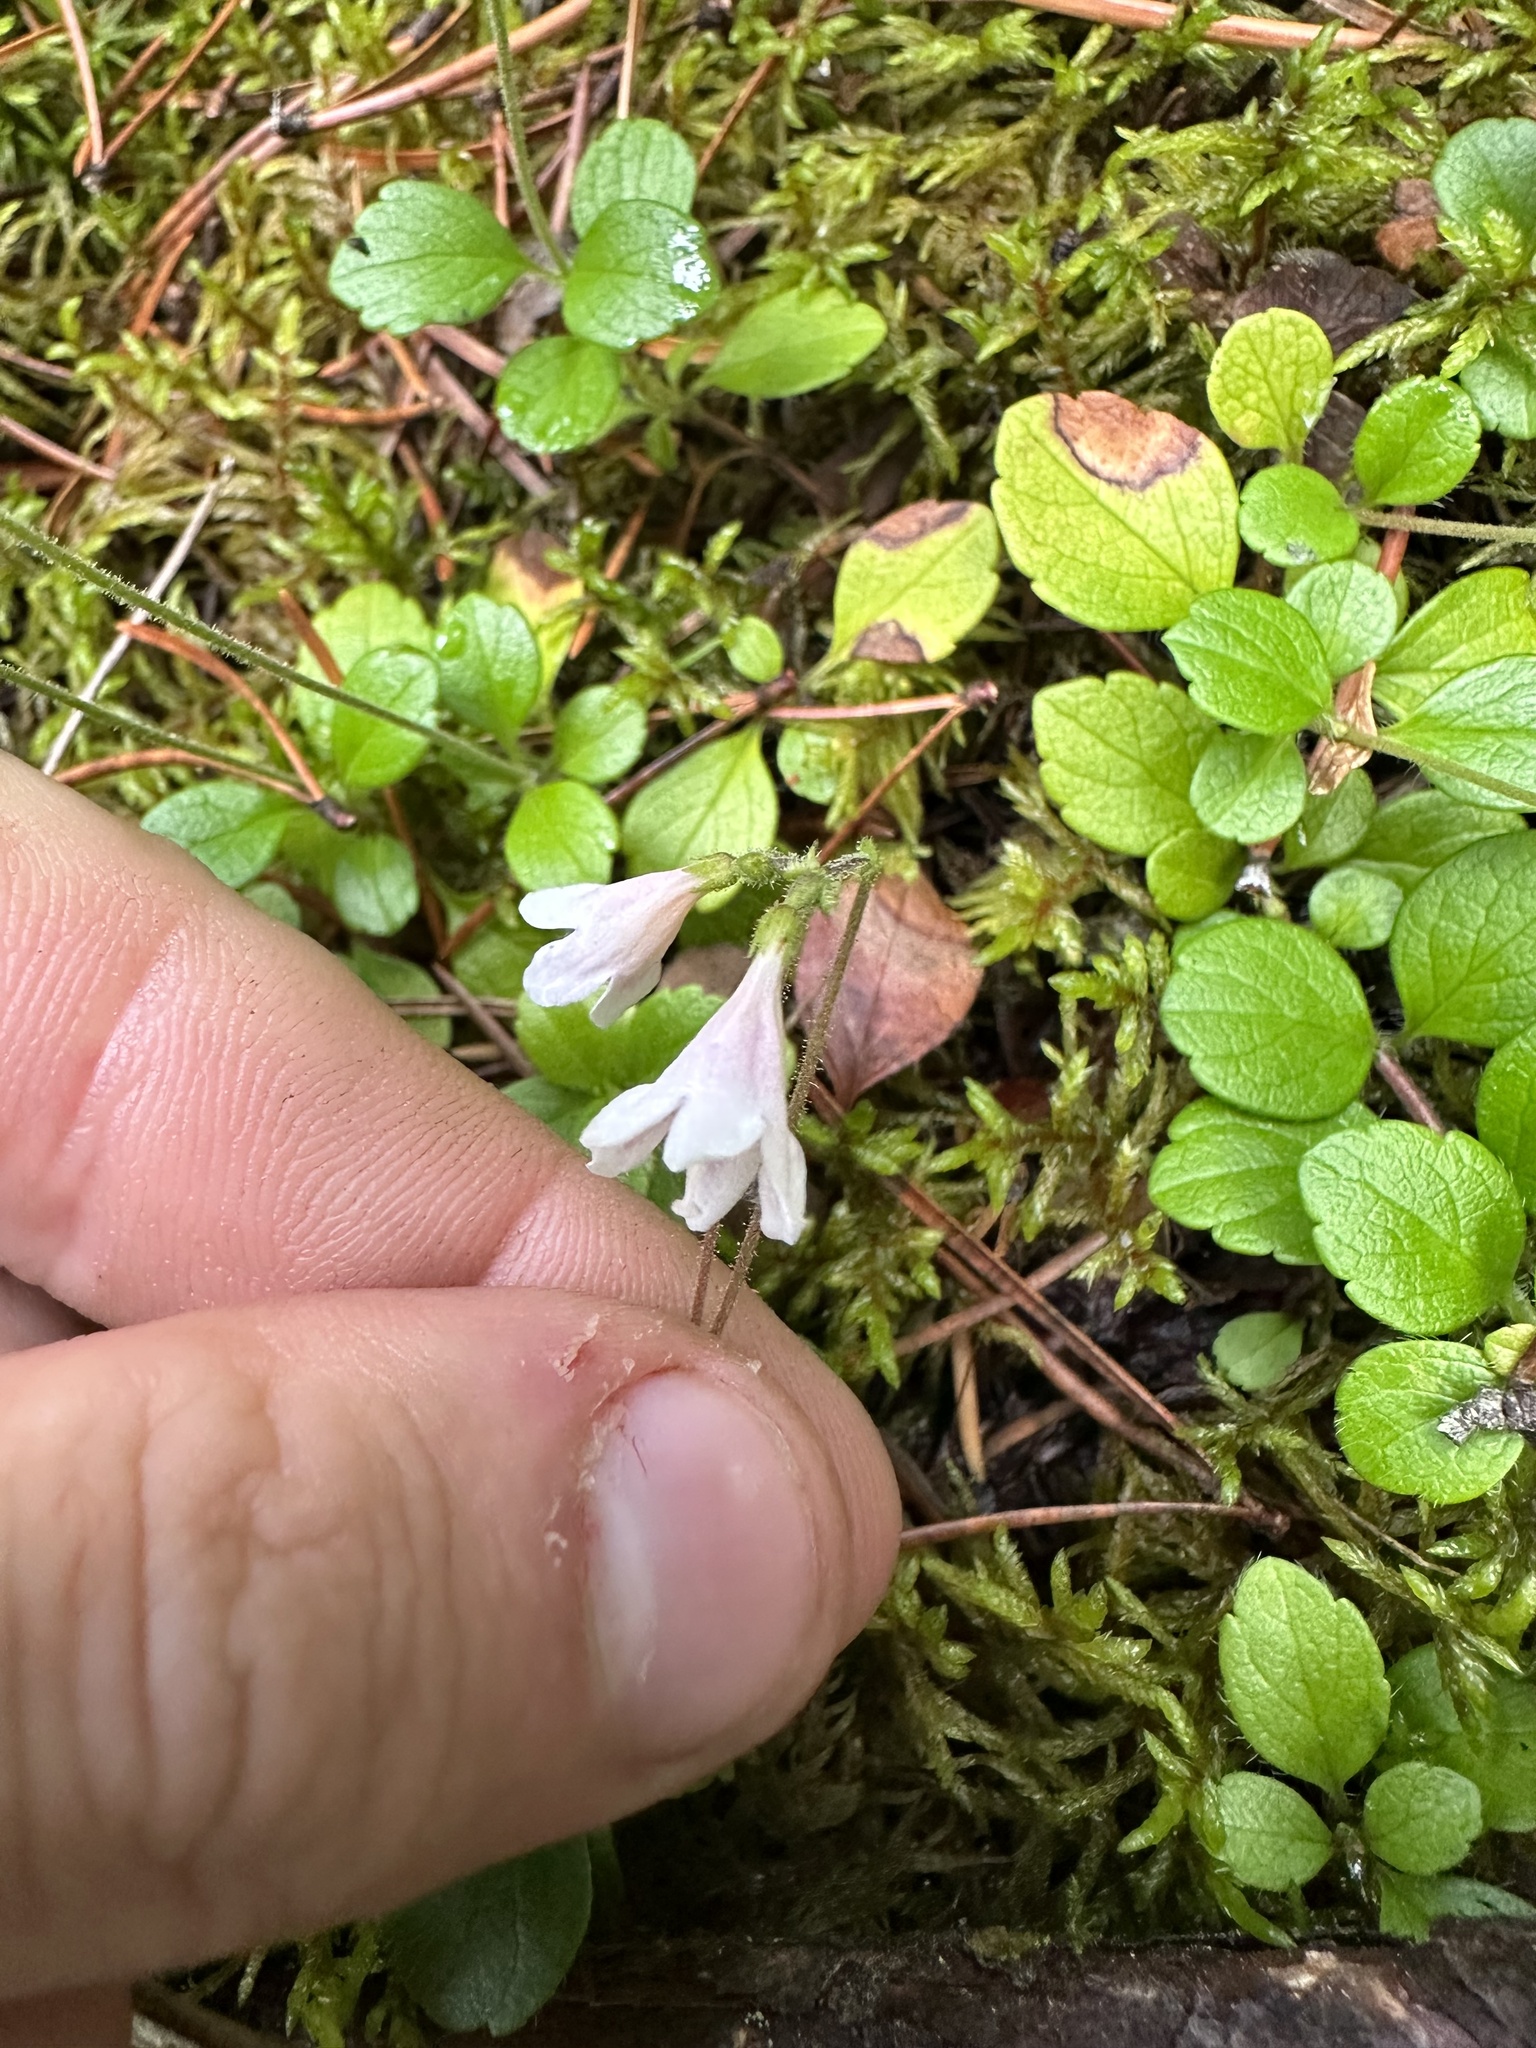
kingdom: Plantae
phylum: Tracheophyta
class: Magnoliopsida
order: Dipsacales
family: Caprifoliaceae
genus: Linnaea
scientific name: Linnaea borealis
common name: Twinflower
